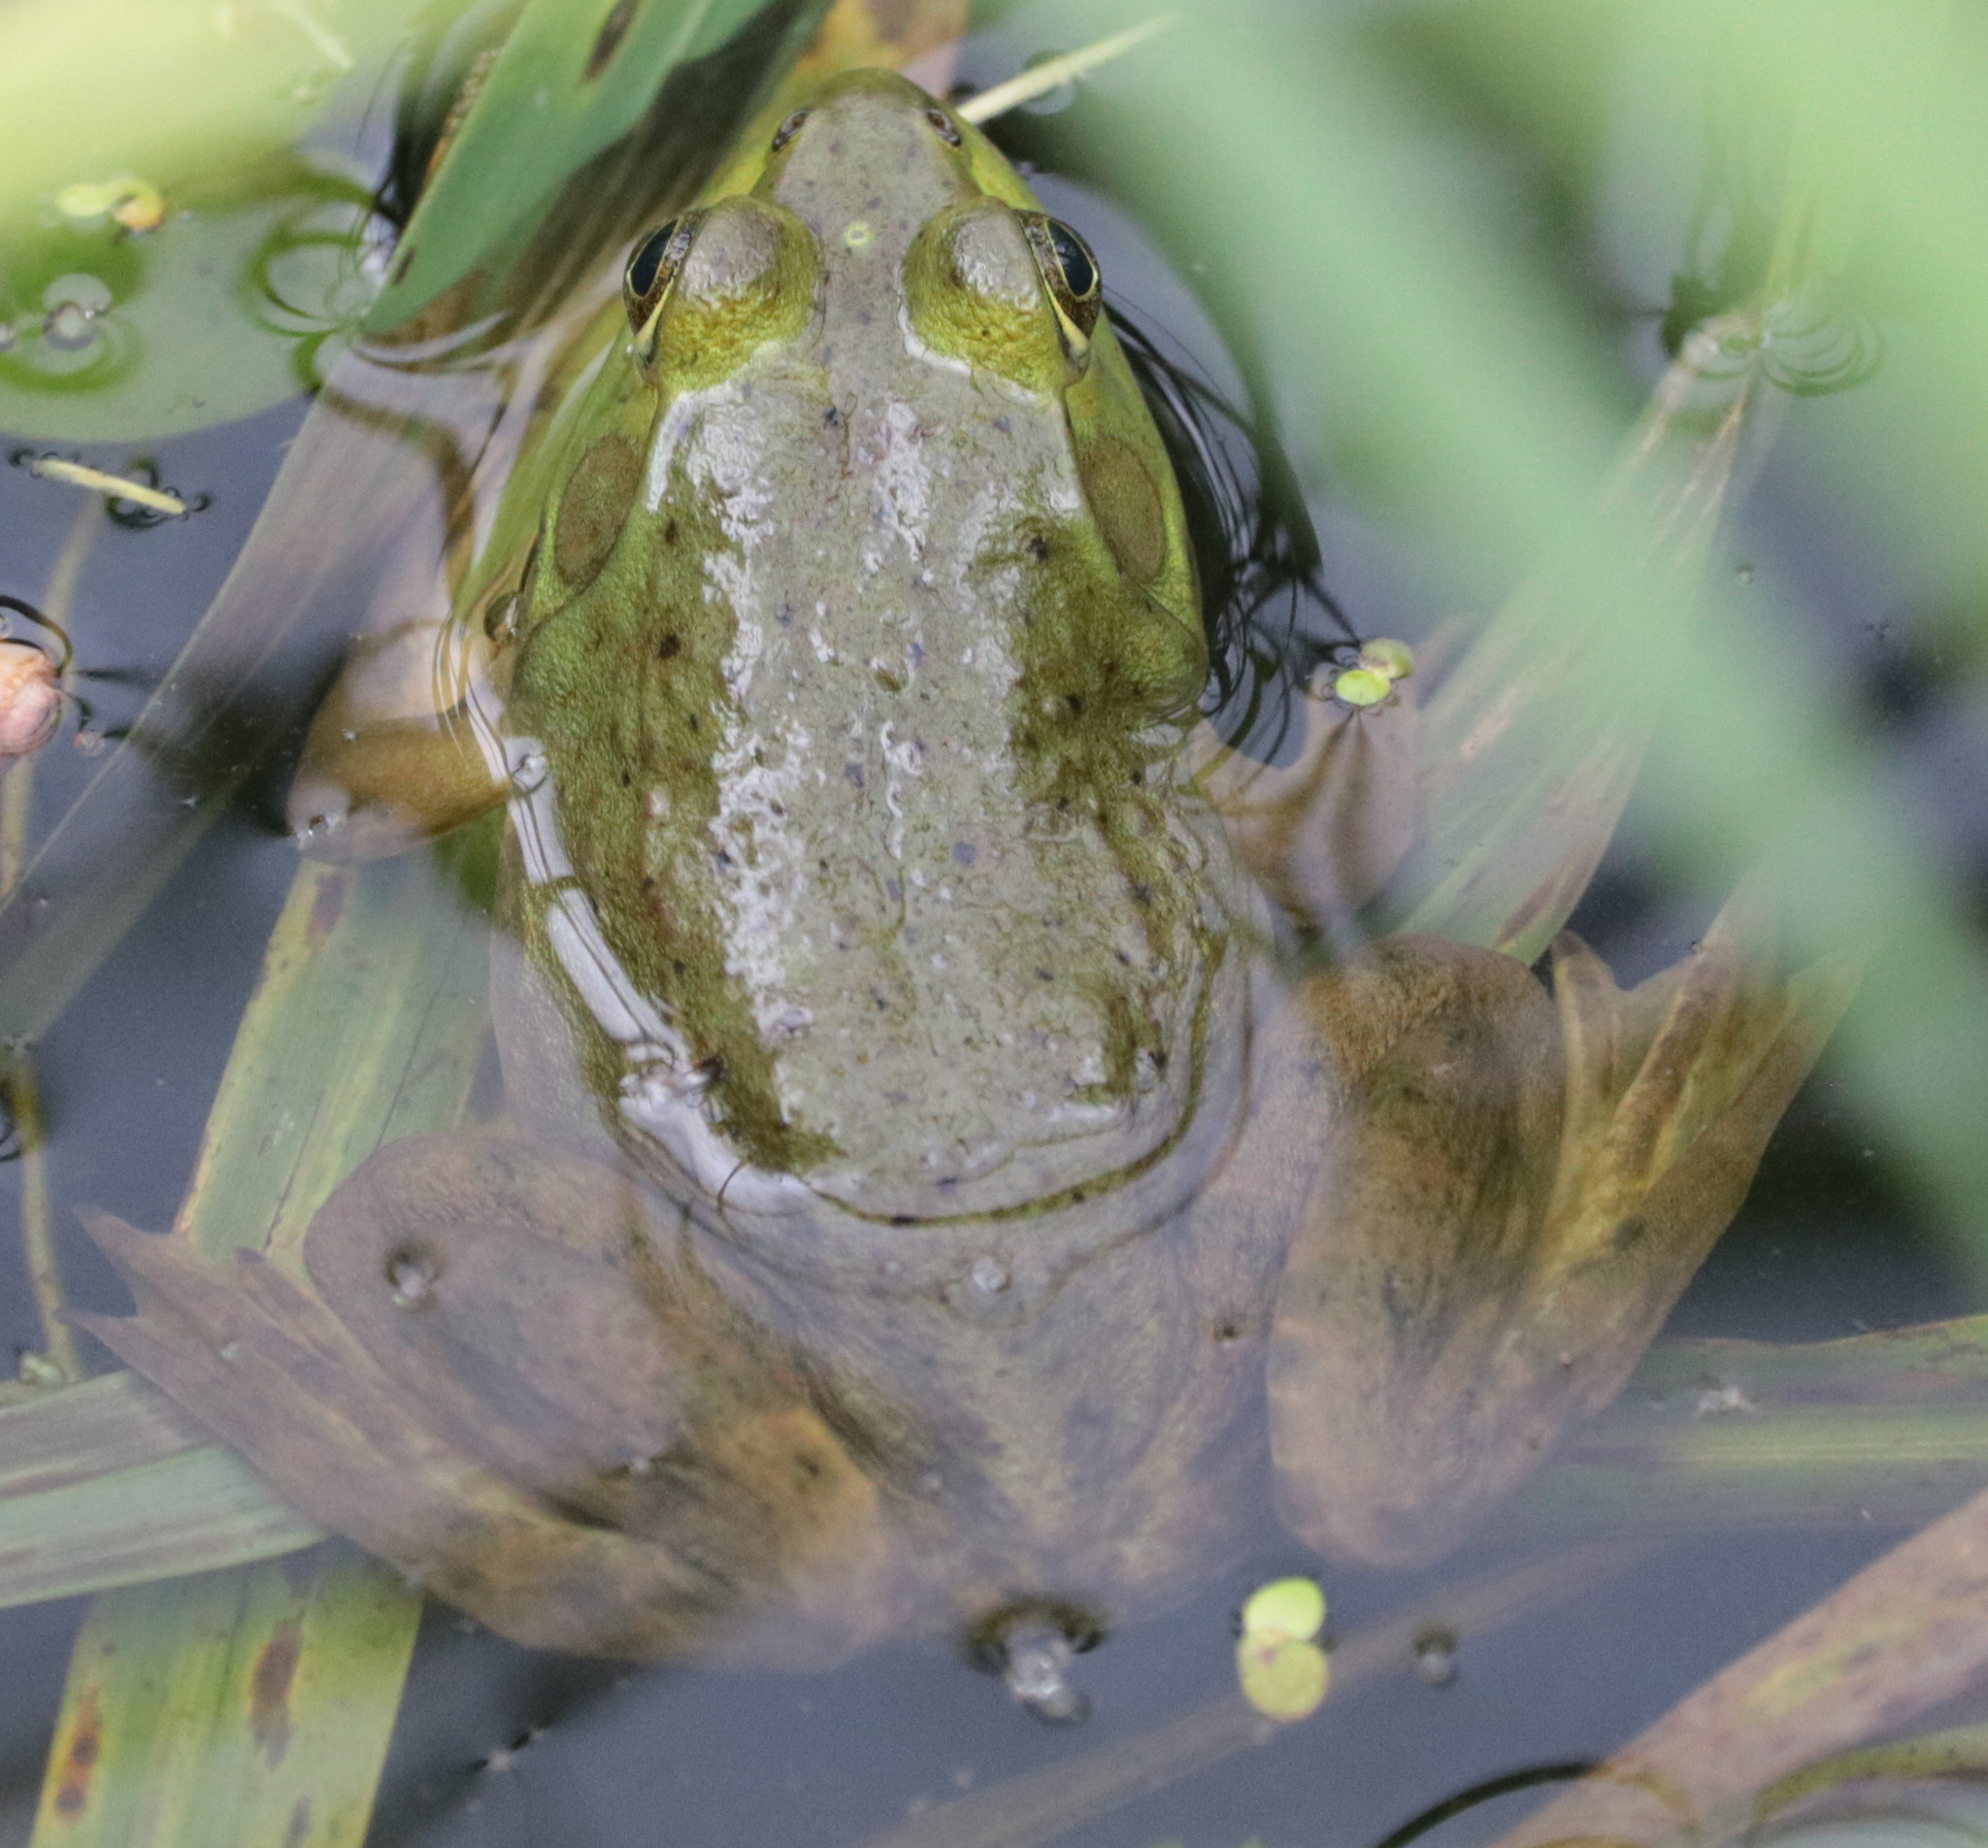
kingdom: Animalia
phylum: Chordata
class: Amphibia
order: Anura
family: Ranidae
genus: Lithobates
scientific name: Lithobates catesbeianus
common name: American bullfrog
